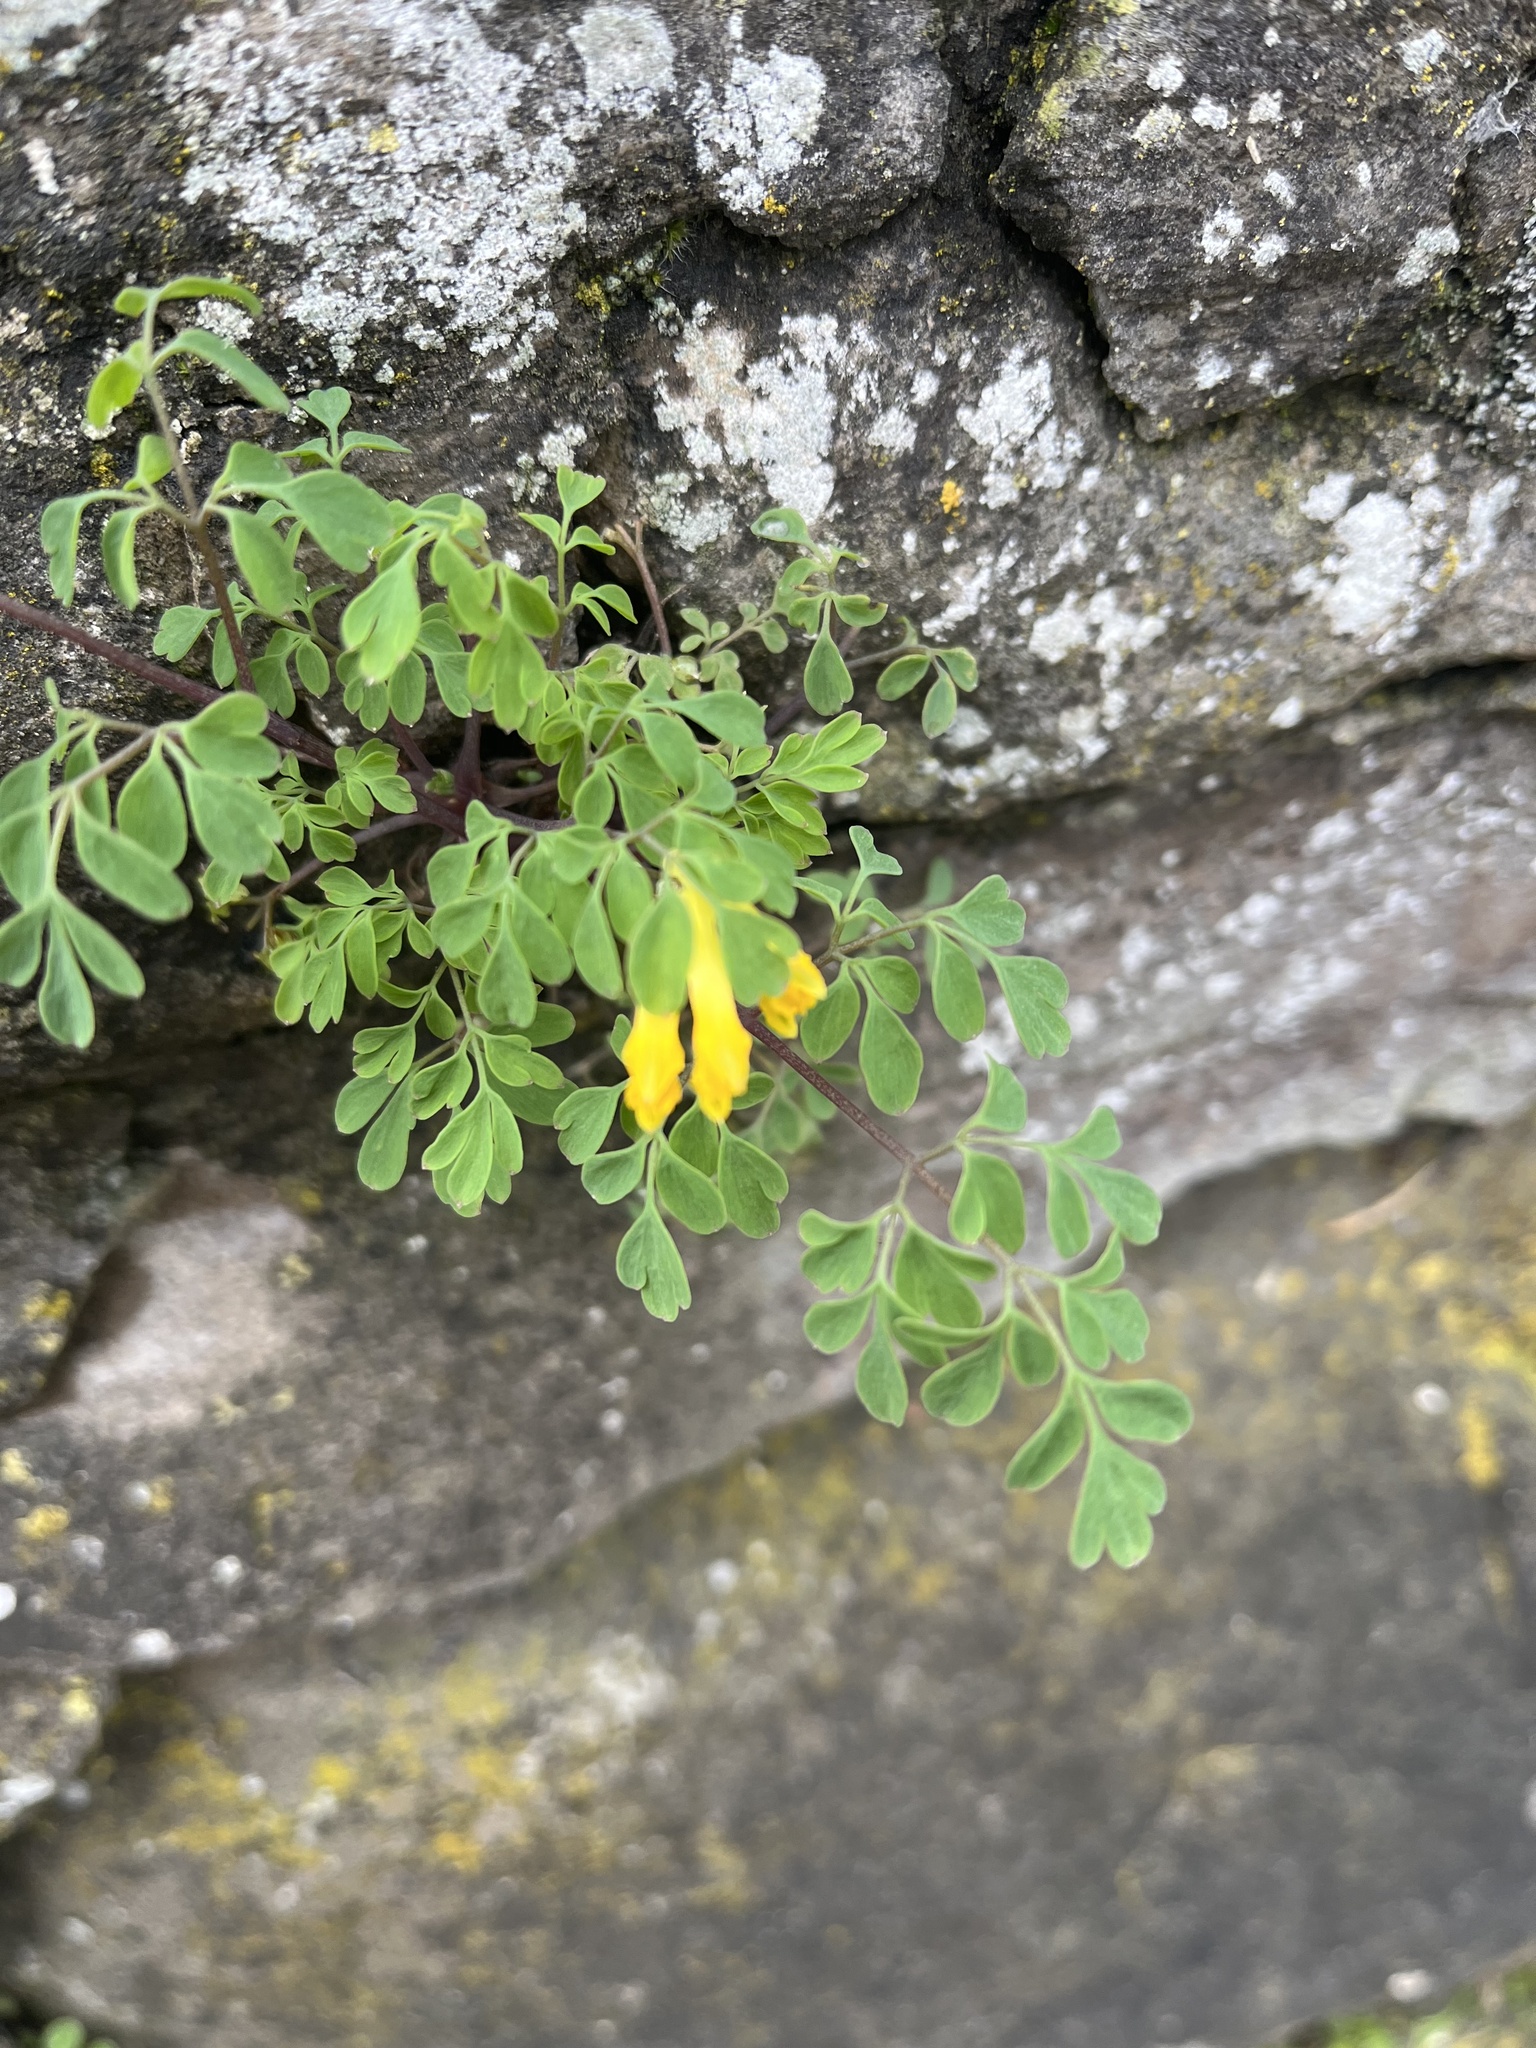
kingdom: Plantae
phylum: Tracheophyta
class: Magnoliopsida
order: Ranunculales
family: Papaveraceae
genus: Pseudofumaria
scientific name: Pseudofumaria lutea
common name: Yellow corydalis
